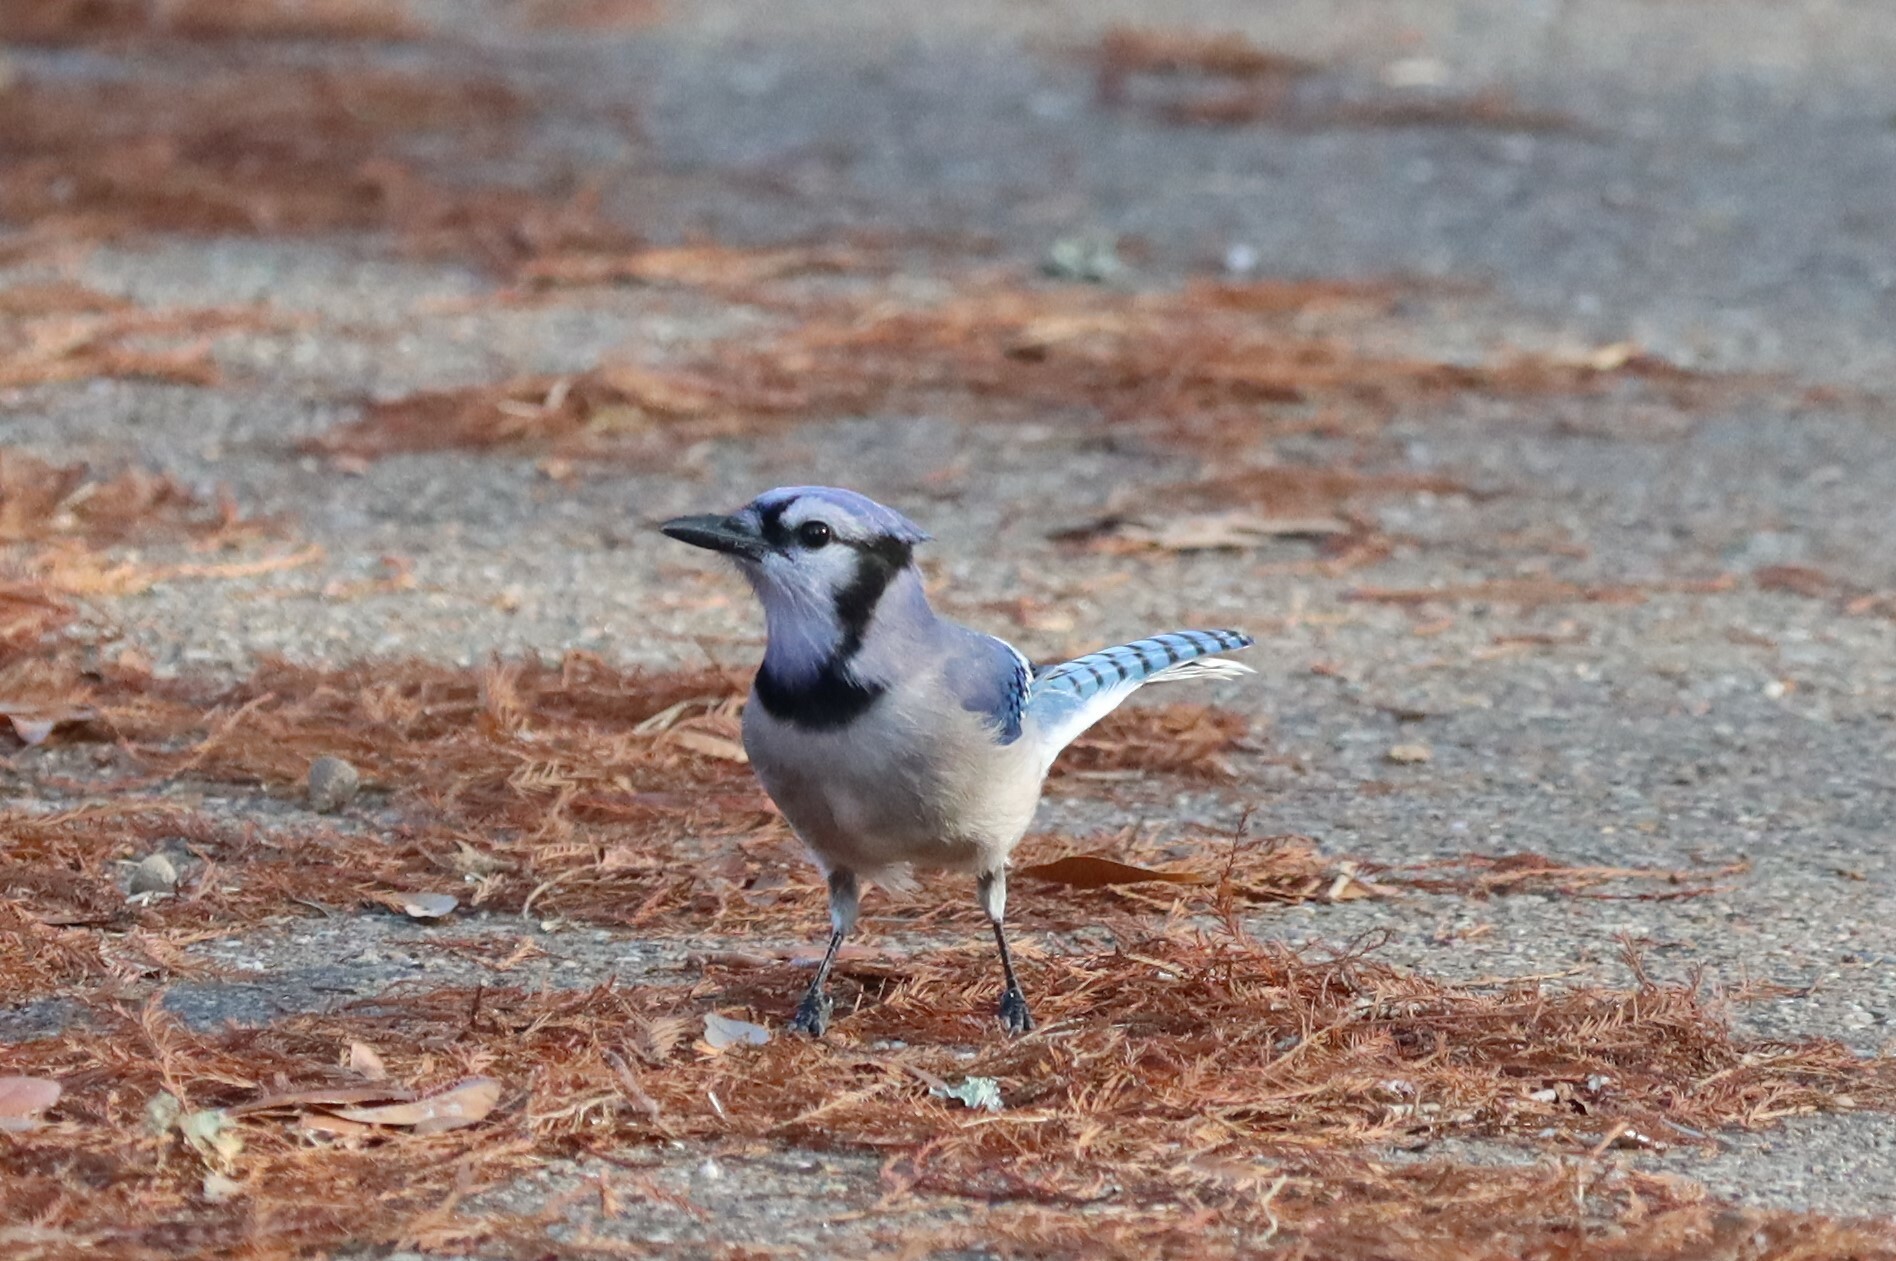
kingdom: Animalia
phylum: Chordata
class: Aves
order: Passeriformes
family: Corvidae
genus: Cyanocitta
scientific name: Cyanocitta cristata
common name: Blue jay
